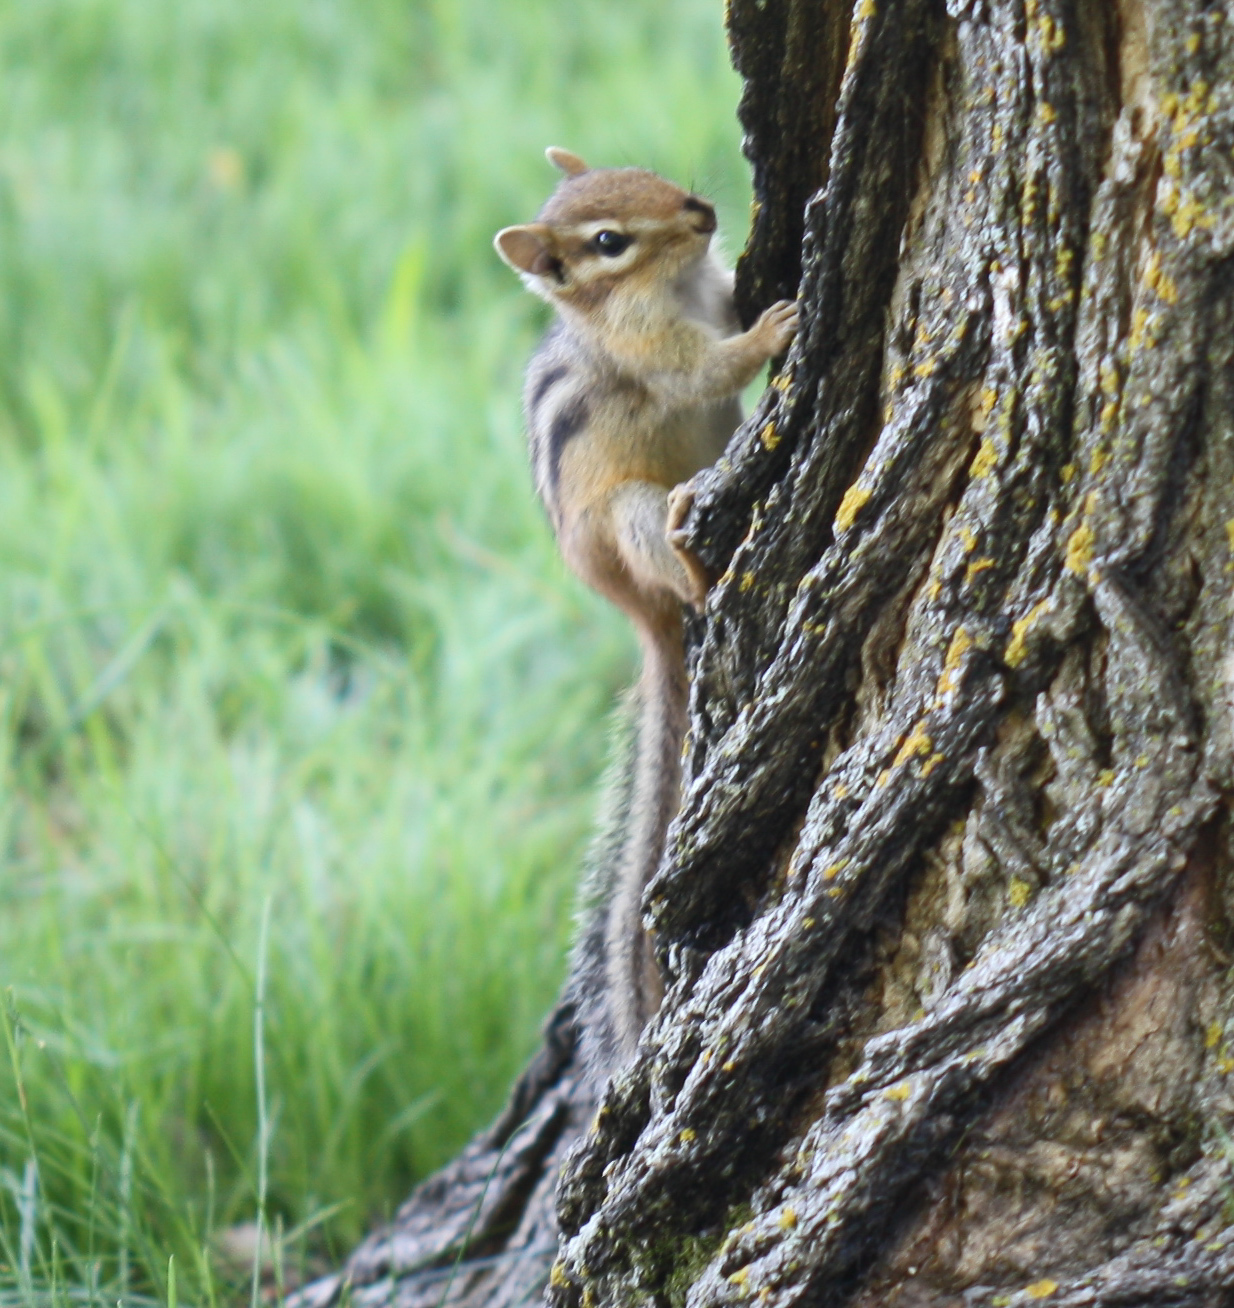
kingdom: Animalia
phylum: Chordata
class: Mammalia
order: Rodentia
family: Sciuridae
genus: Tamias
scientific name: Tamias striatus
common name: Eastern chipmunk
